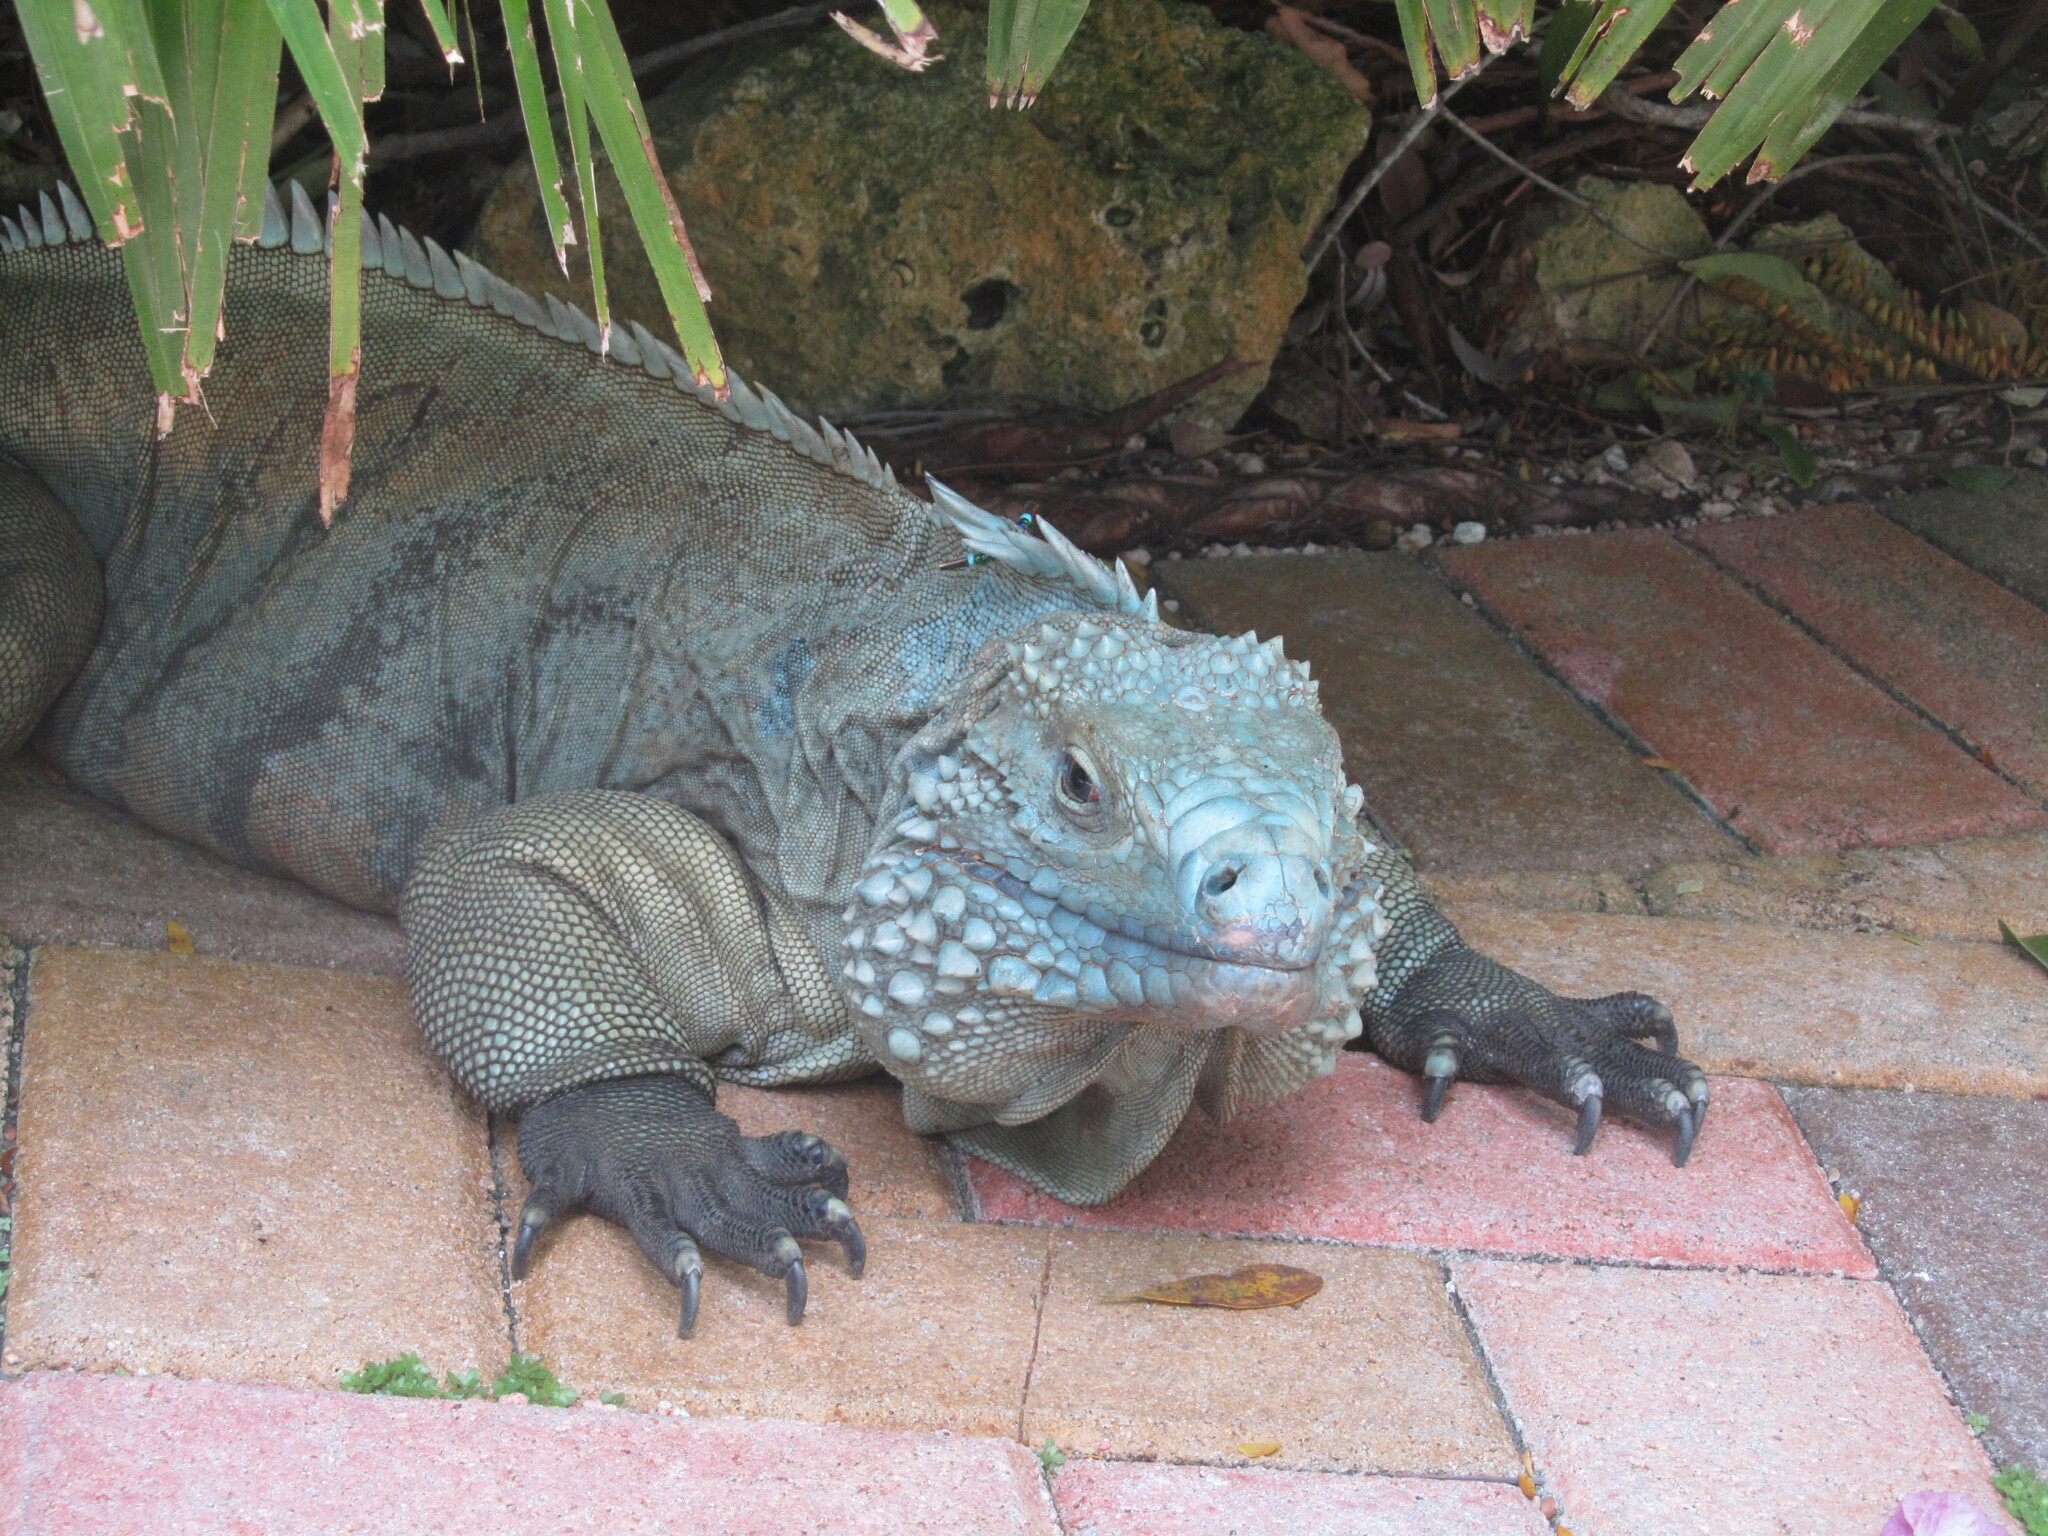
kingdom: Animalia
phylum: Chordata
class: Squamata
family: Iguanidae
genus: Cyclura
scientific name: Cyclura lewisi
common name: Grand cayman blue iguana
